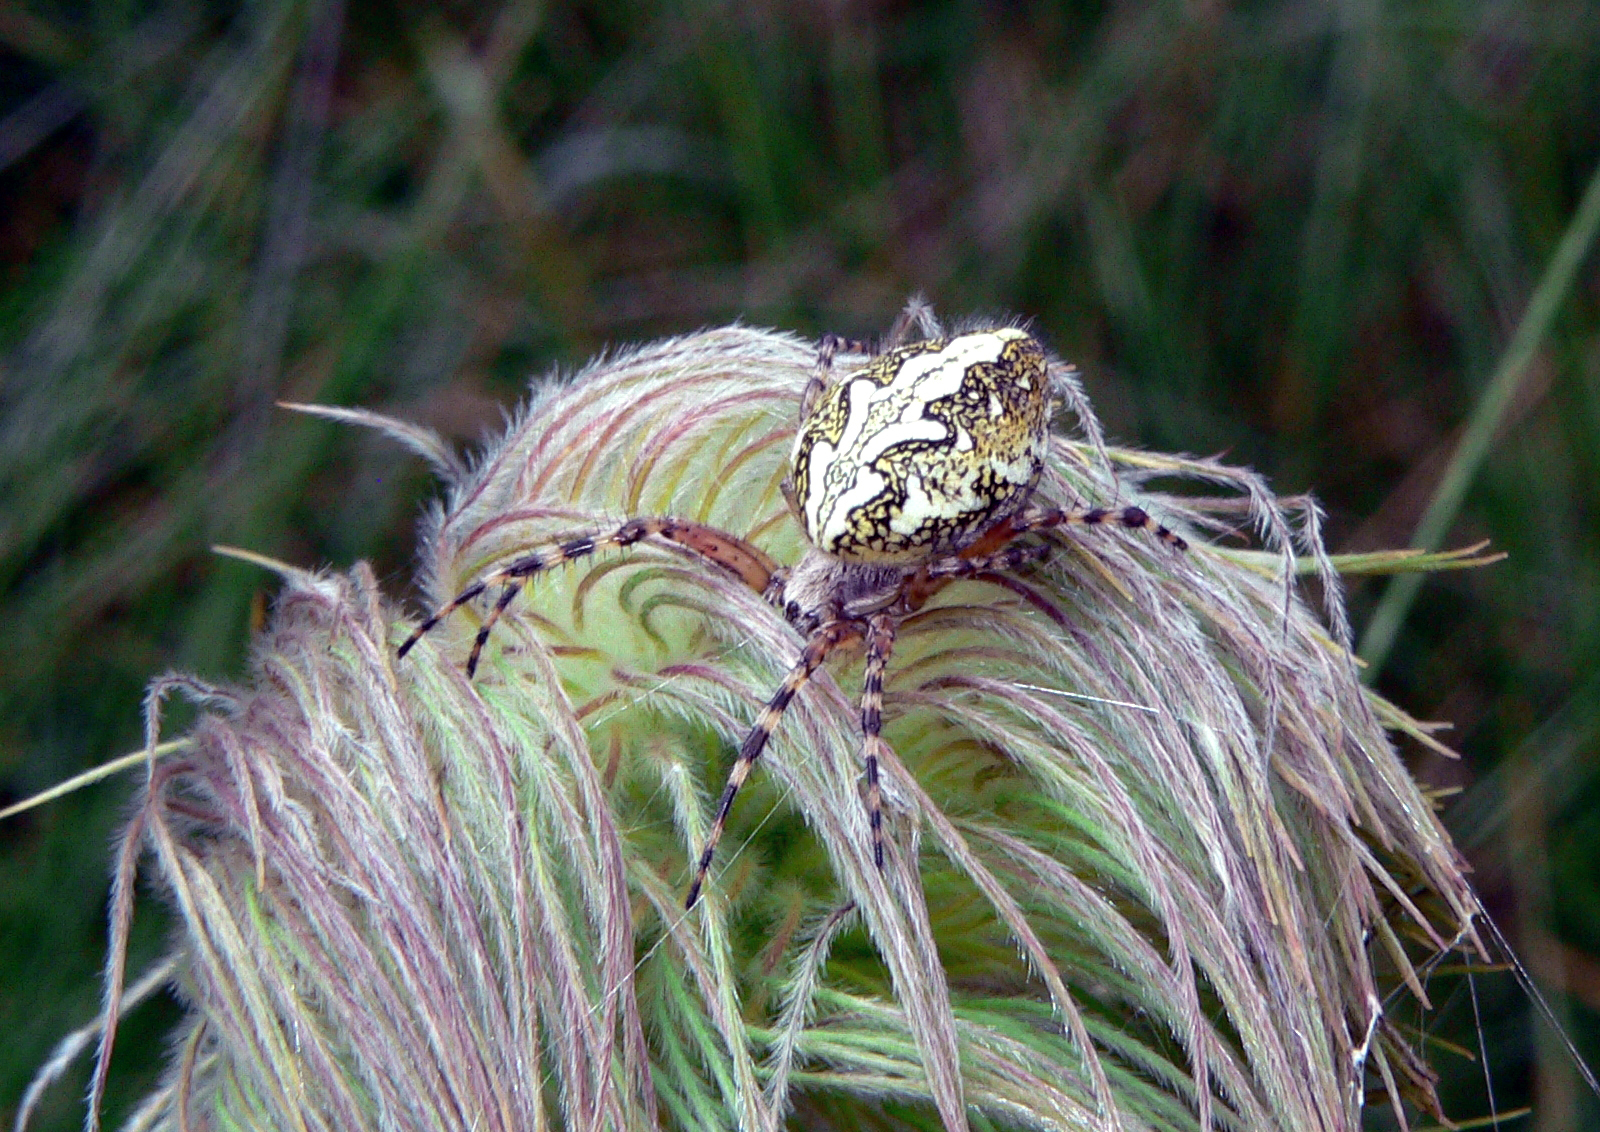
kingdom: Animalia
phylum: Arthropoda
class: Arachnida
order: Araneae
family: Araneidae
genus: Aculepeira
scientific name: Aculepeira ceropegia
